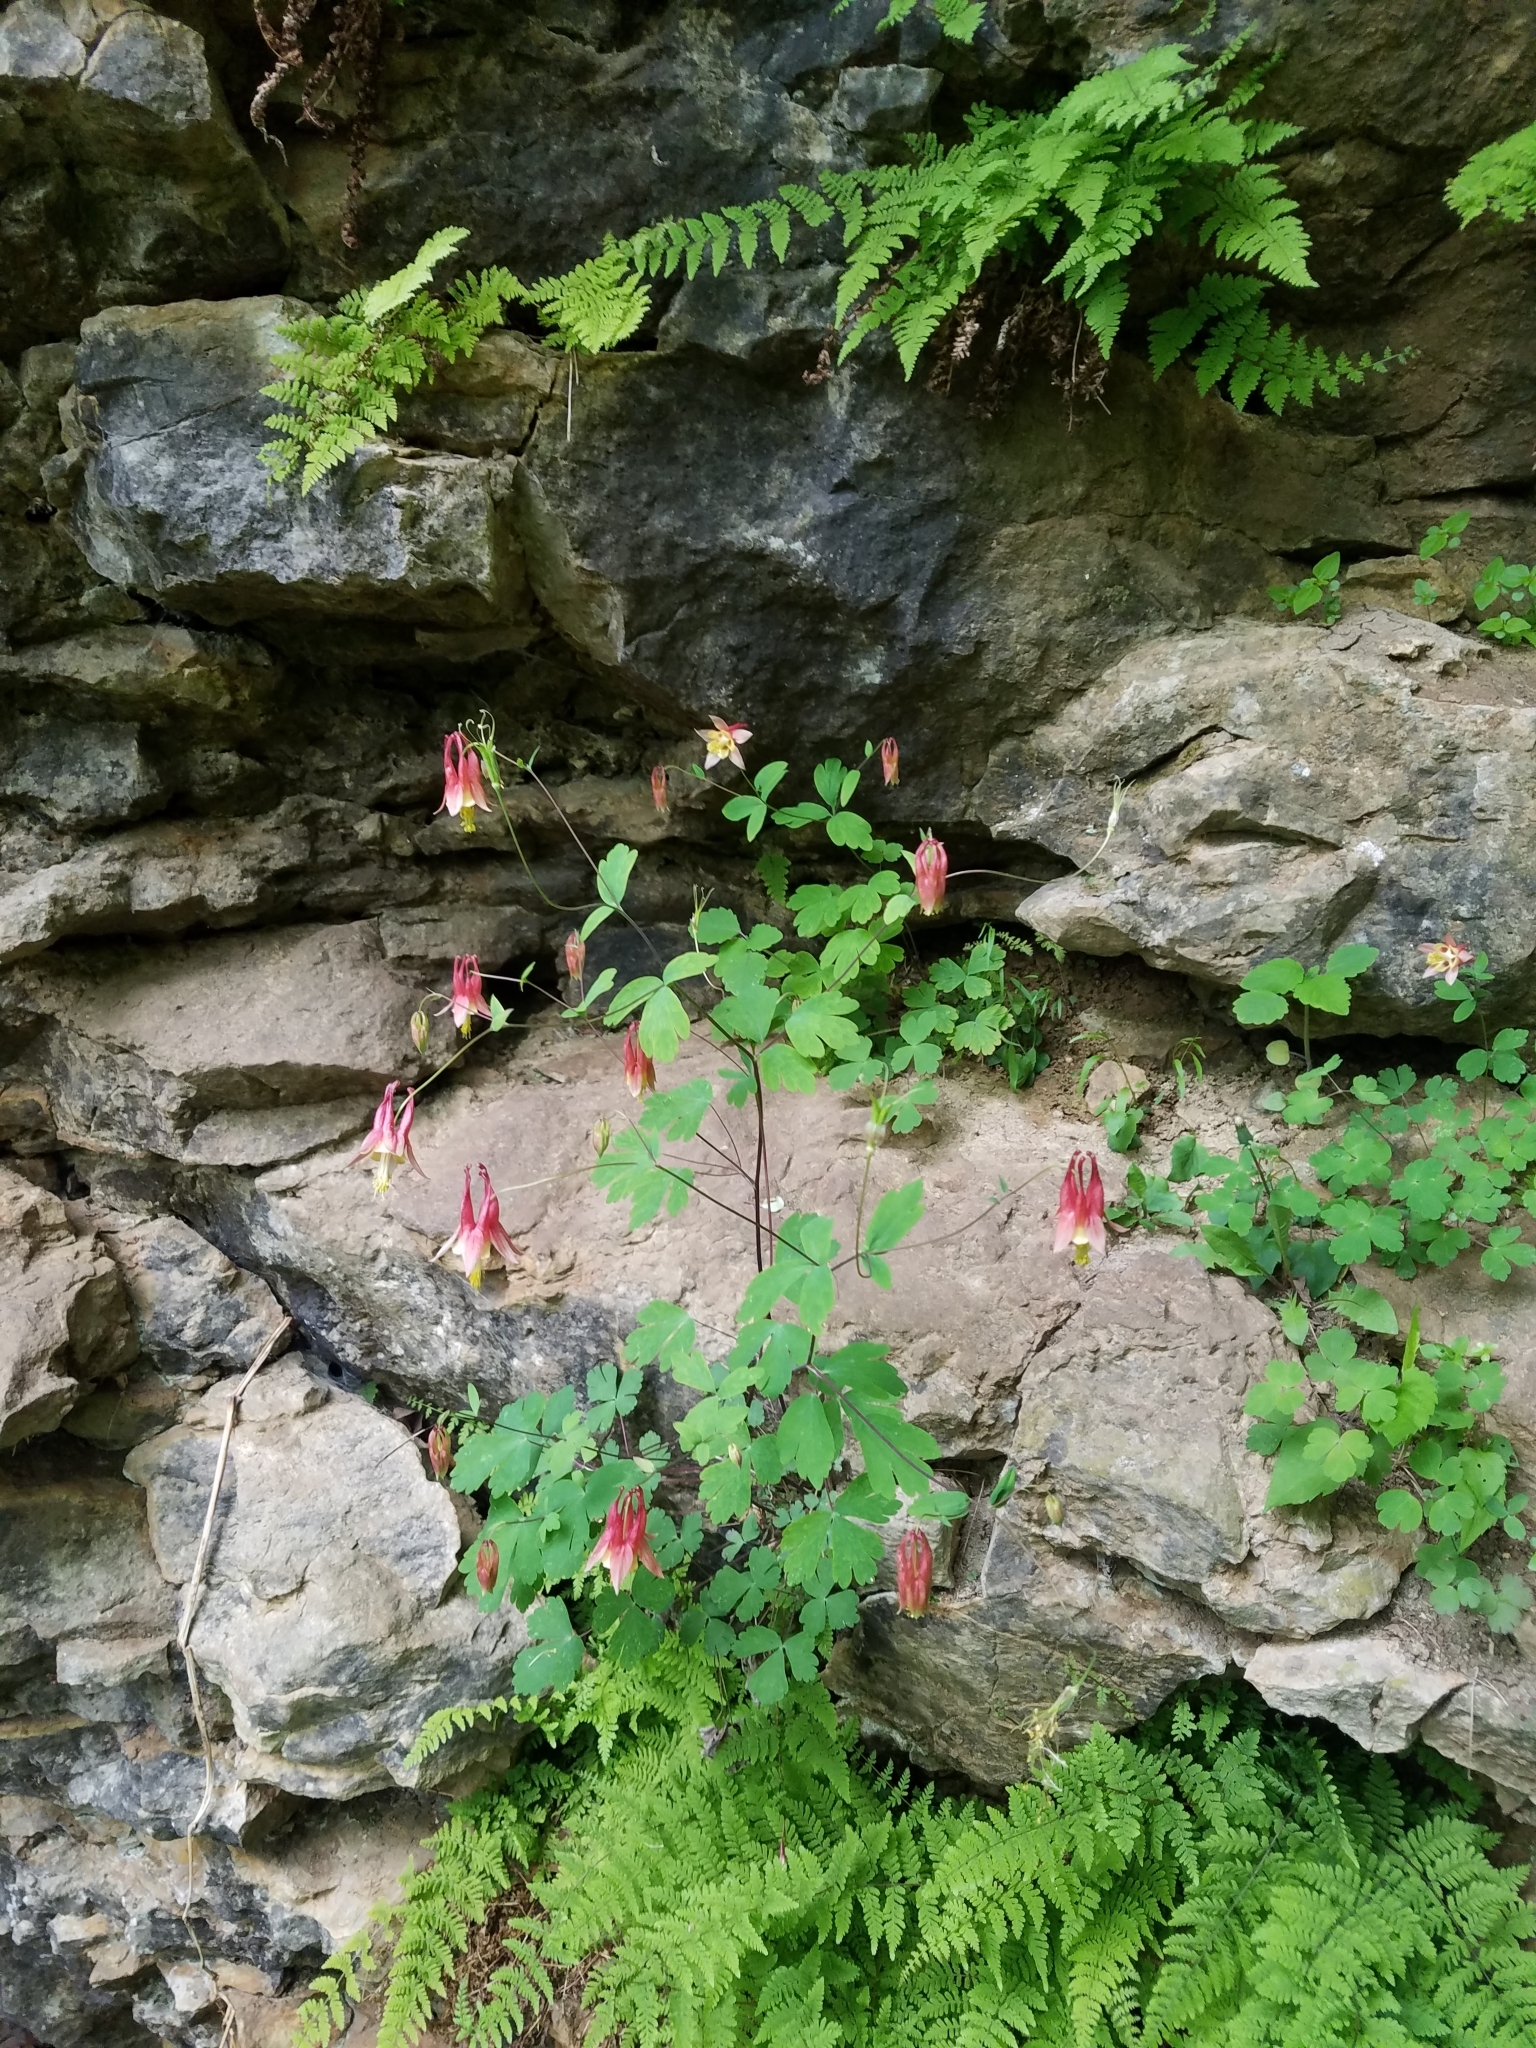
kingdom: Plantae
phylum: Tracheophyta
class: Magnoliopsida
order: Ranunculales
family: Ranunculaceae
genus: Aquilegia
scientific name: Aquilegia canadensis
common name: American columbine
